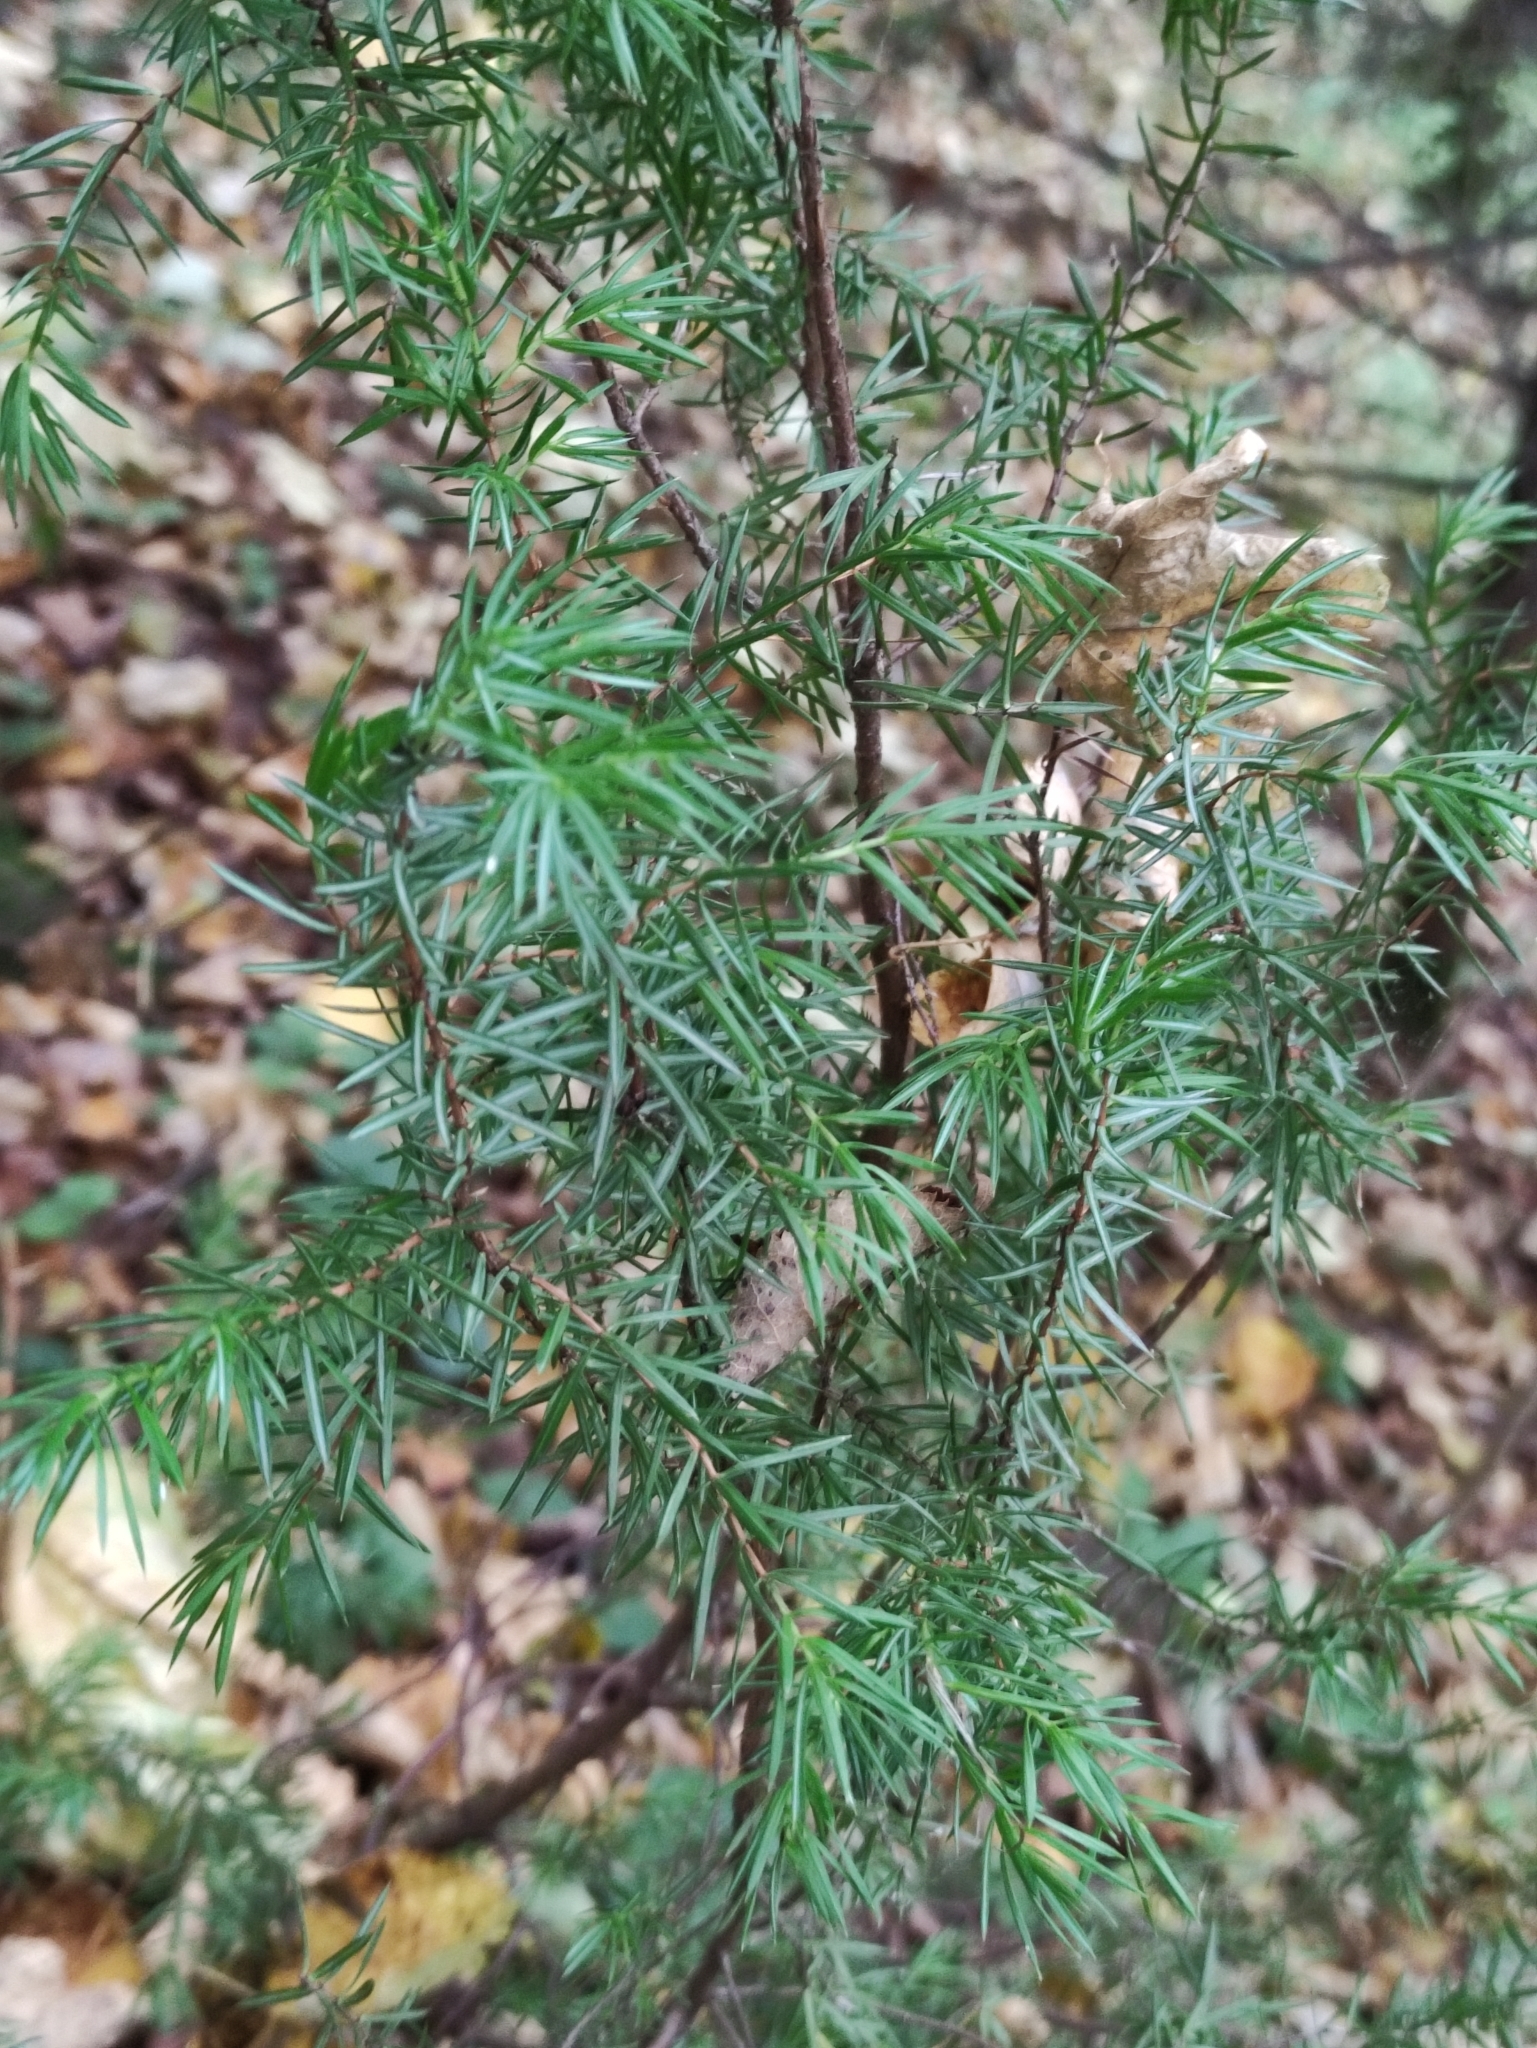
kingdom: Plantae
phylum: Tracheophyta
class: Pinopsida
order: Pinales
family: Cupressaceae
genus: Juniperus
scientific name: Juniperus communis
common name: Common juniper
